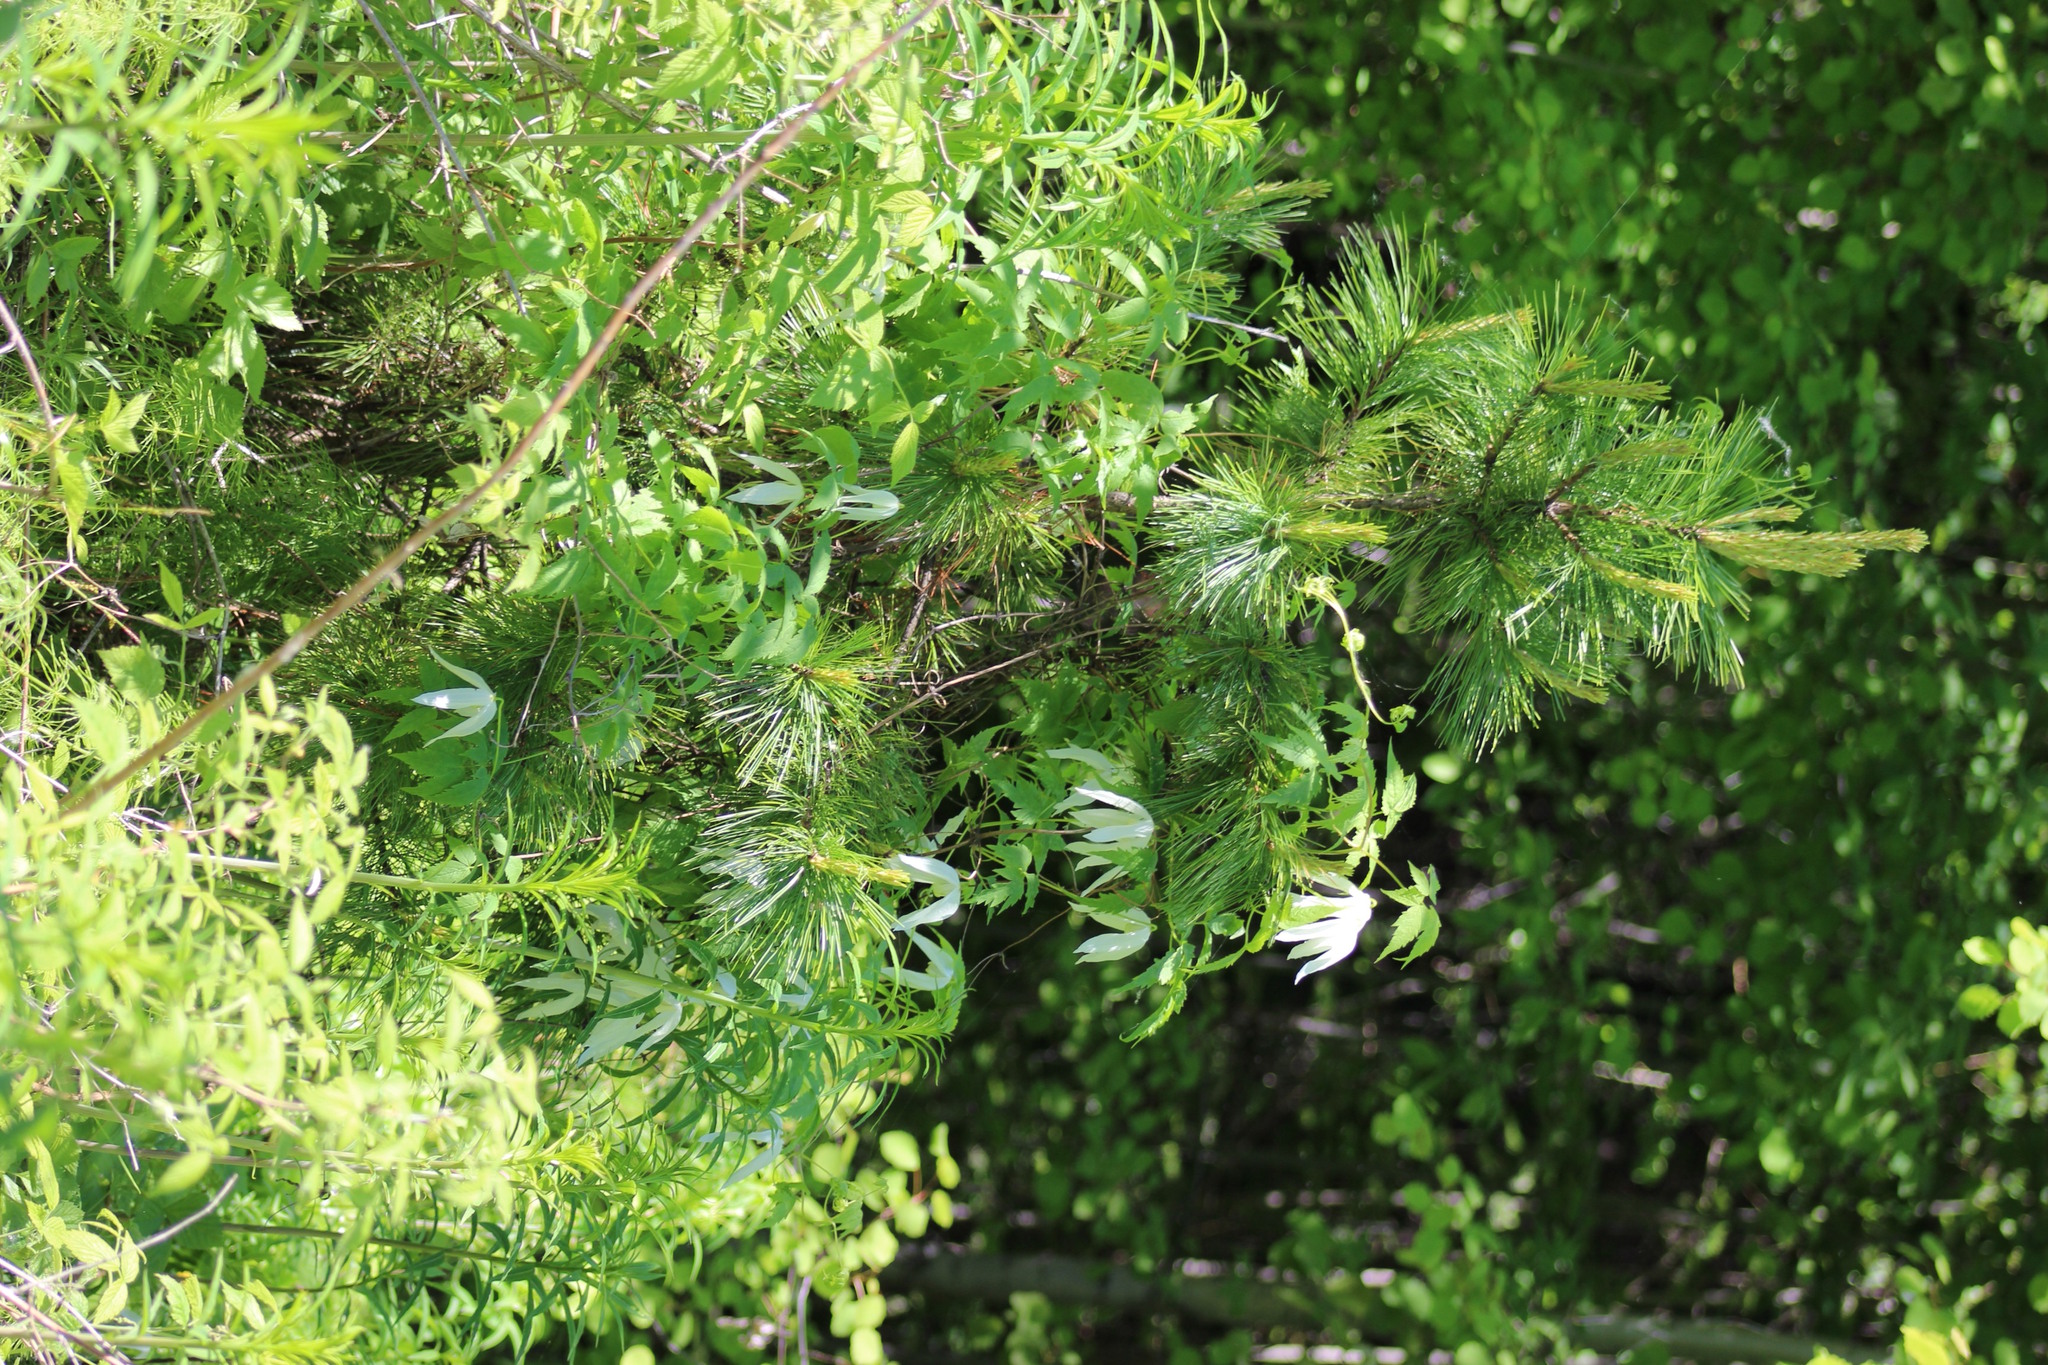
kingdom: Plantae
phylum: Tracheophyta
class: Magnoliopsida
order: Ranunculales
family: Ranunculaceae
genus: Clematis
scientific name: Clematis sibirica
